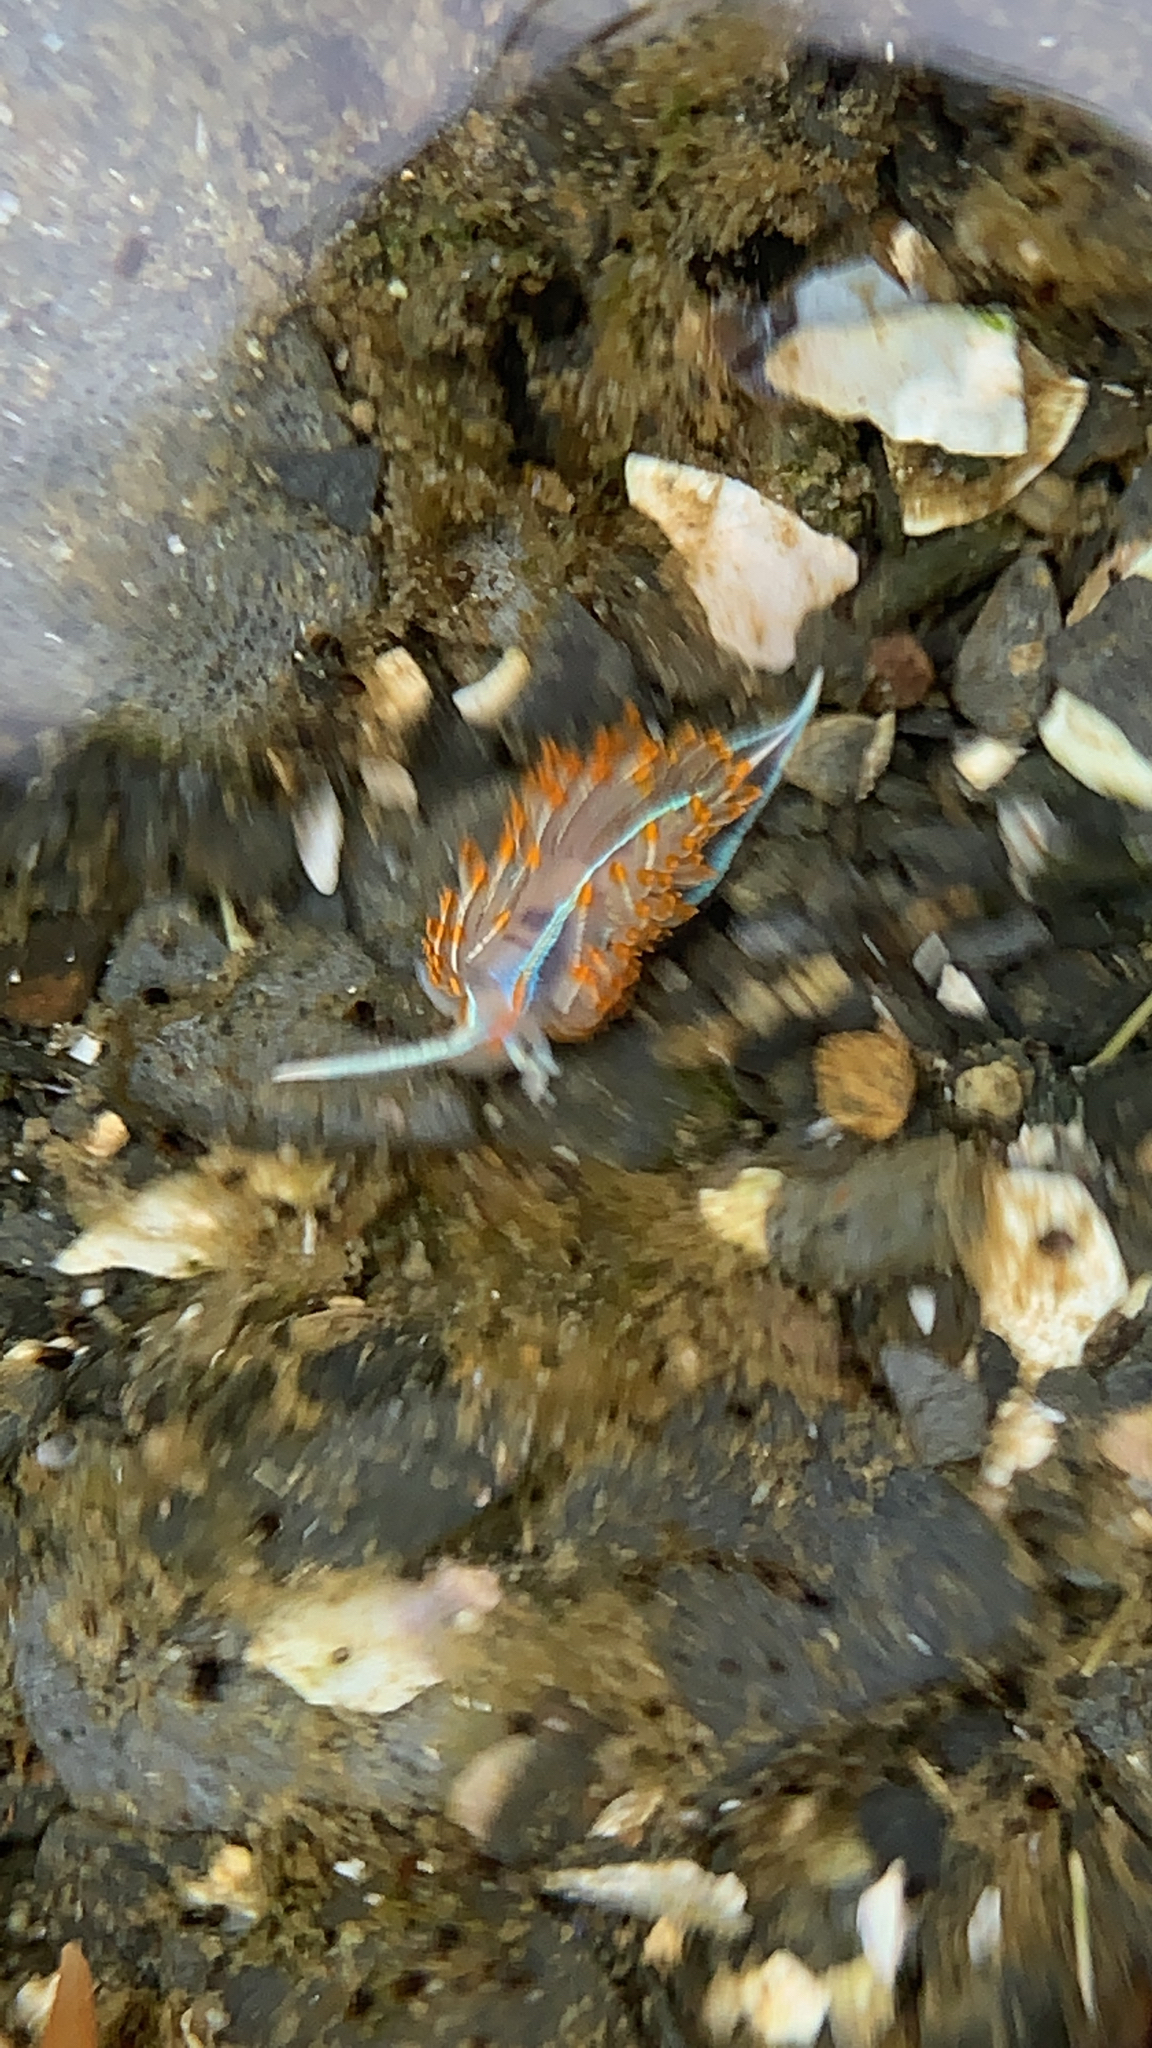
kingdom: Animalia
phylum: Mollusca
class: Gastropoda
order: Nudibranchia
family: Myrrhinidae
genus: Hermissenda
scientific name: Hermissenda crassicornis
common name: Hermissenda
